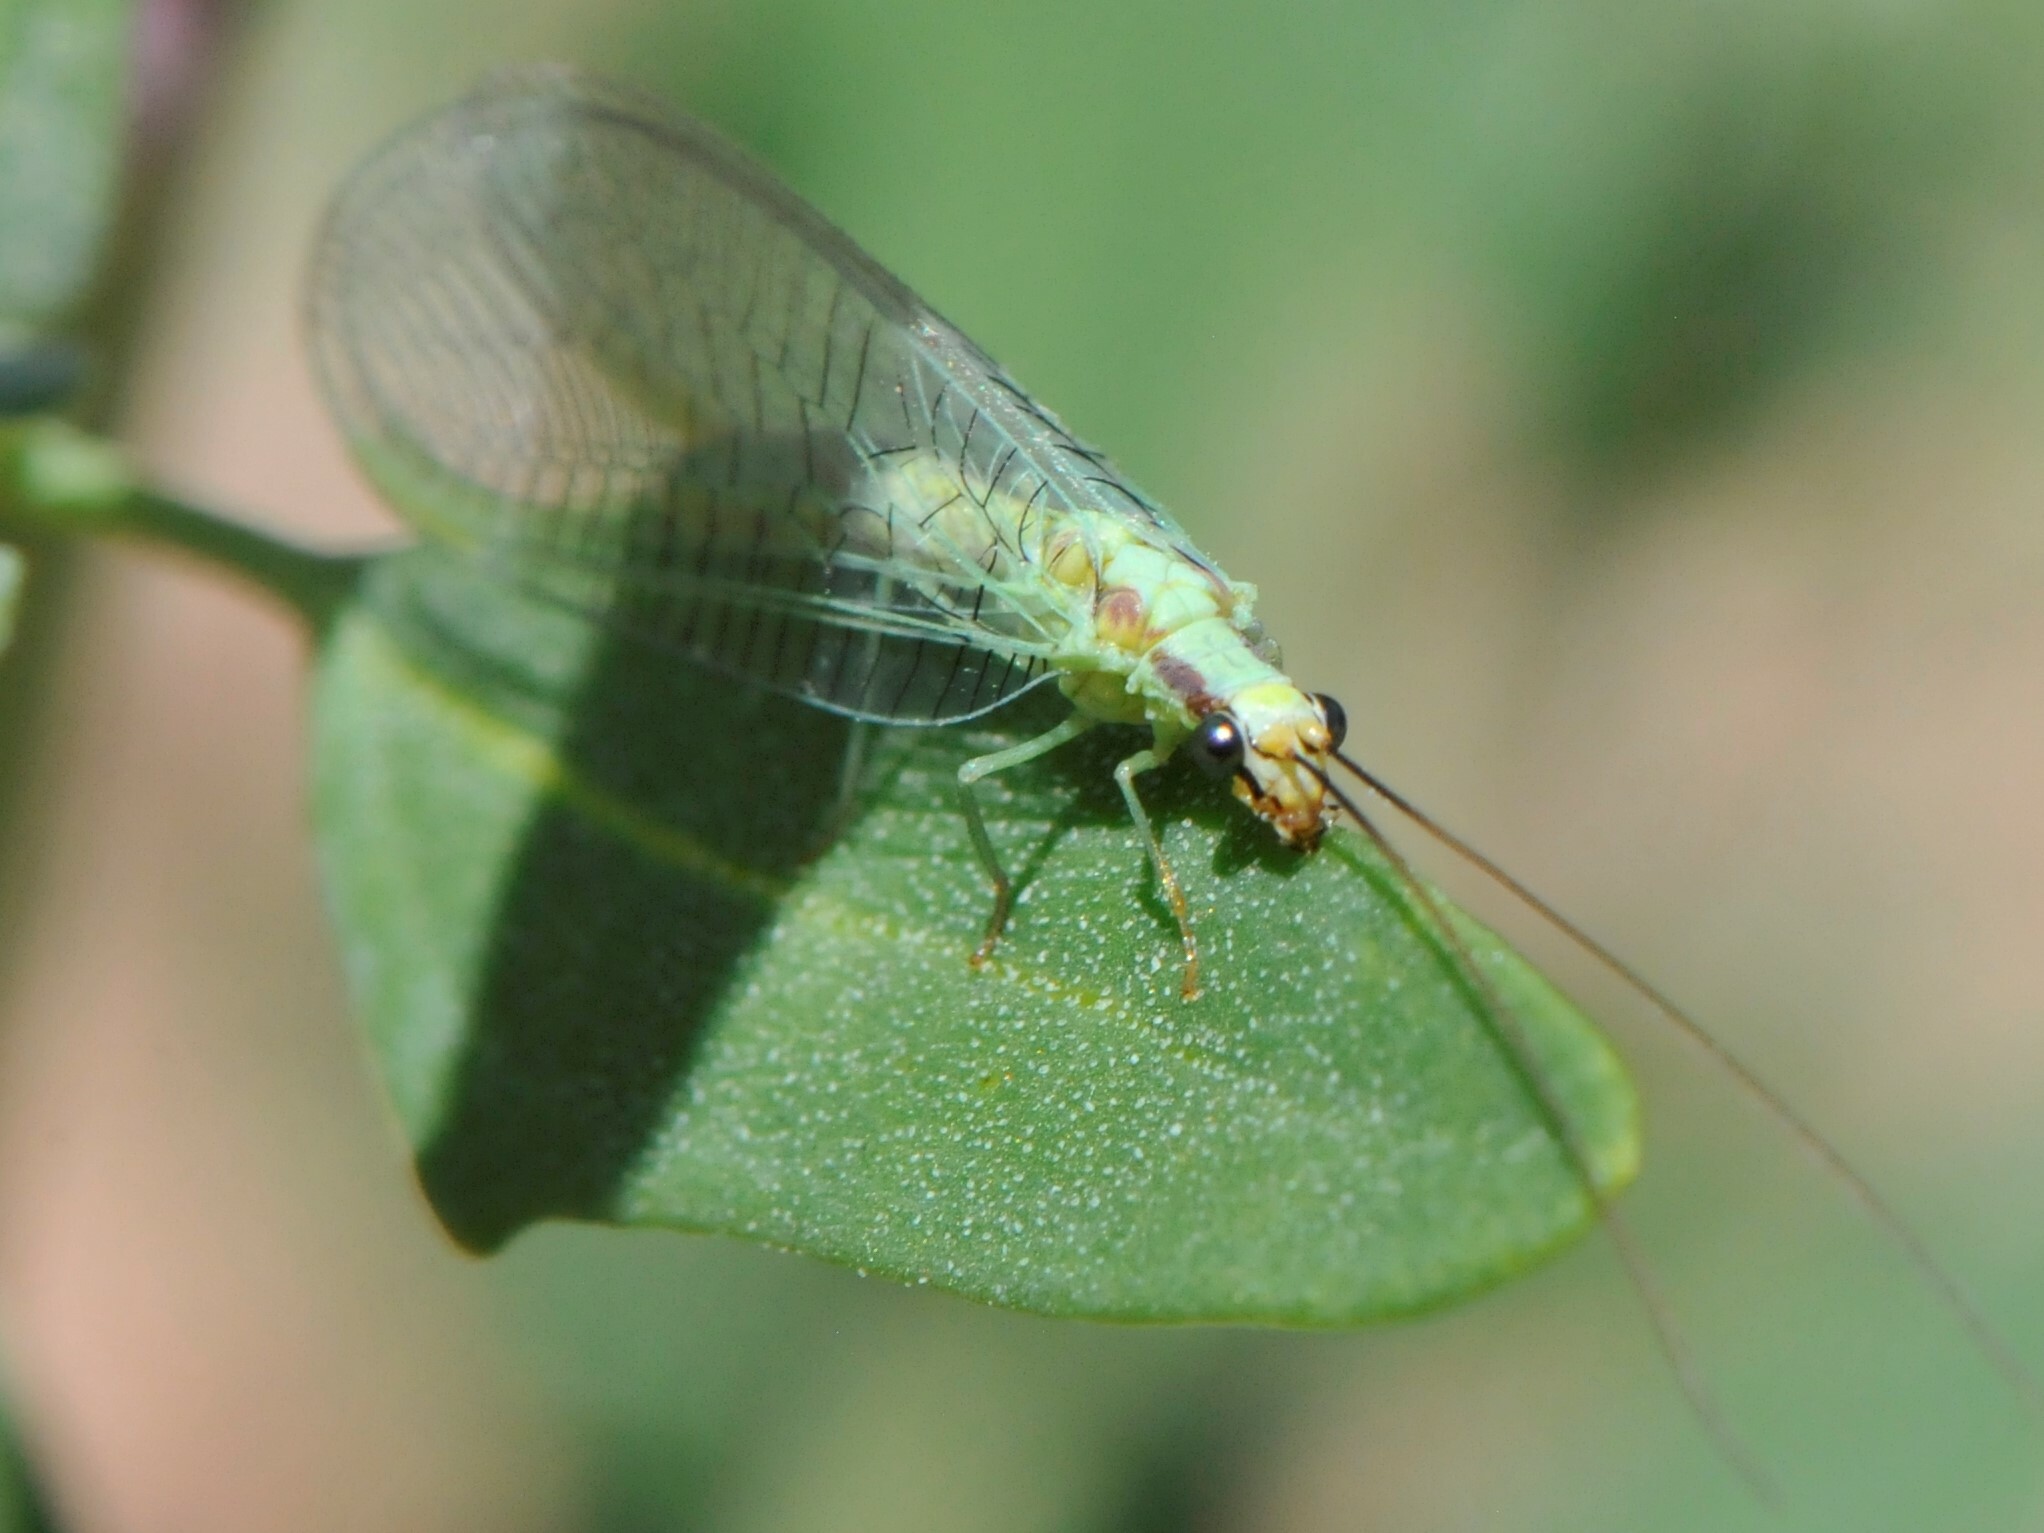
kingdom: Animalia
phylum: Arthropoda
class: Insecta
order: Neuroptera
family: Chrysopidae
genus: Chrysopa
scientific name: Chrysopa coloradensis
